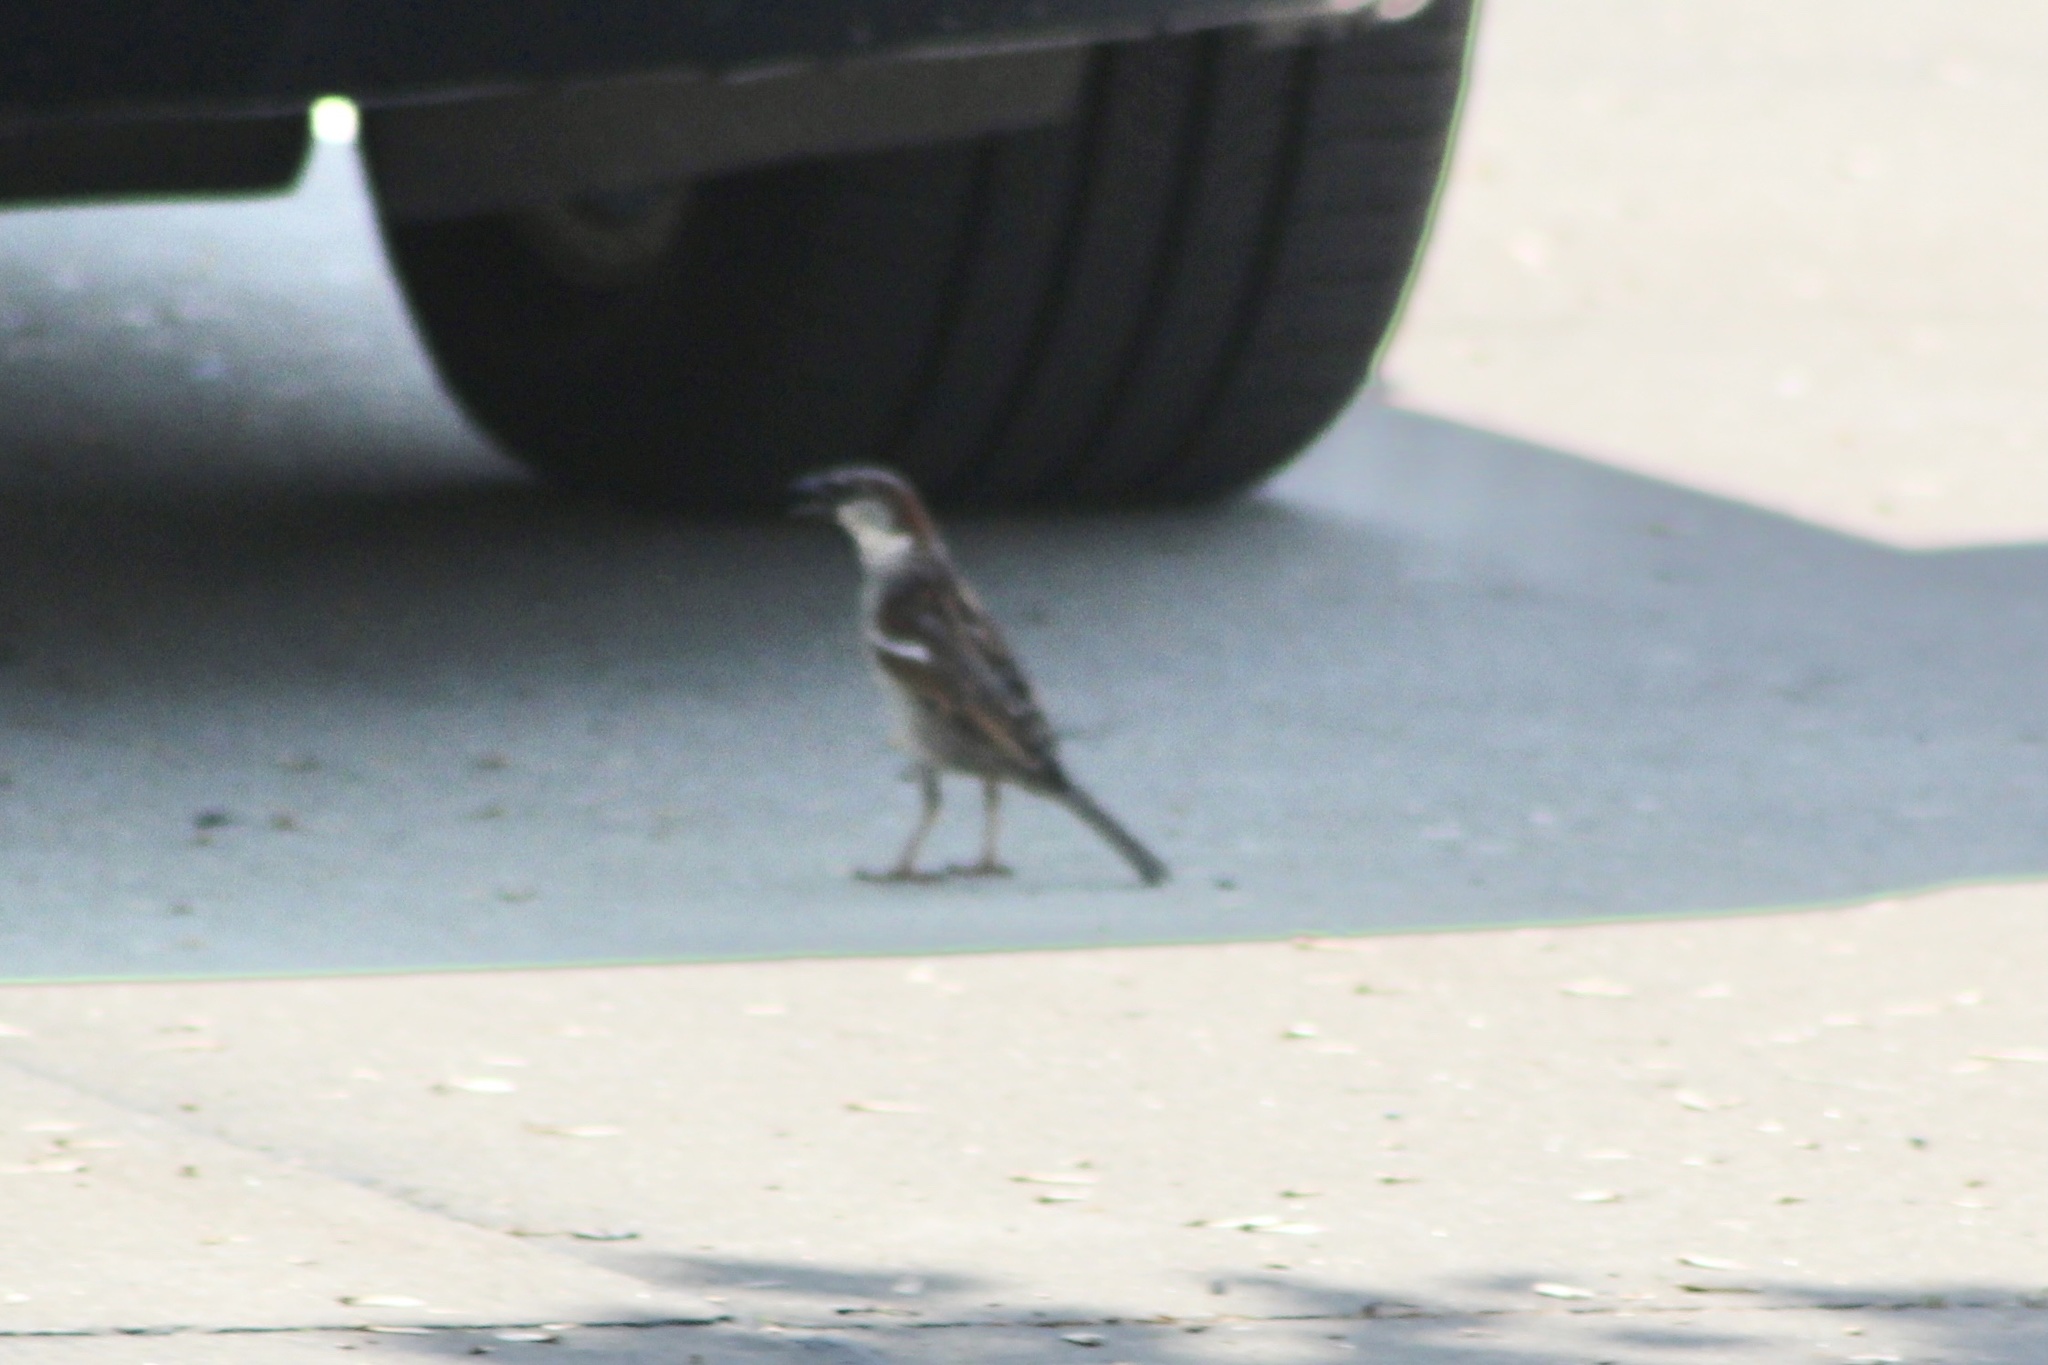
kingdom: Animalia
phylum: Chordata
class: Aves
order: Passeriformes
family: Passeridae
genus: Passer
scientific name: Passer domesticus
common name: House sparrow
